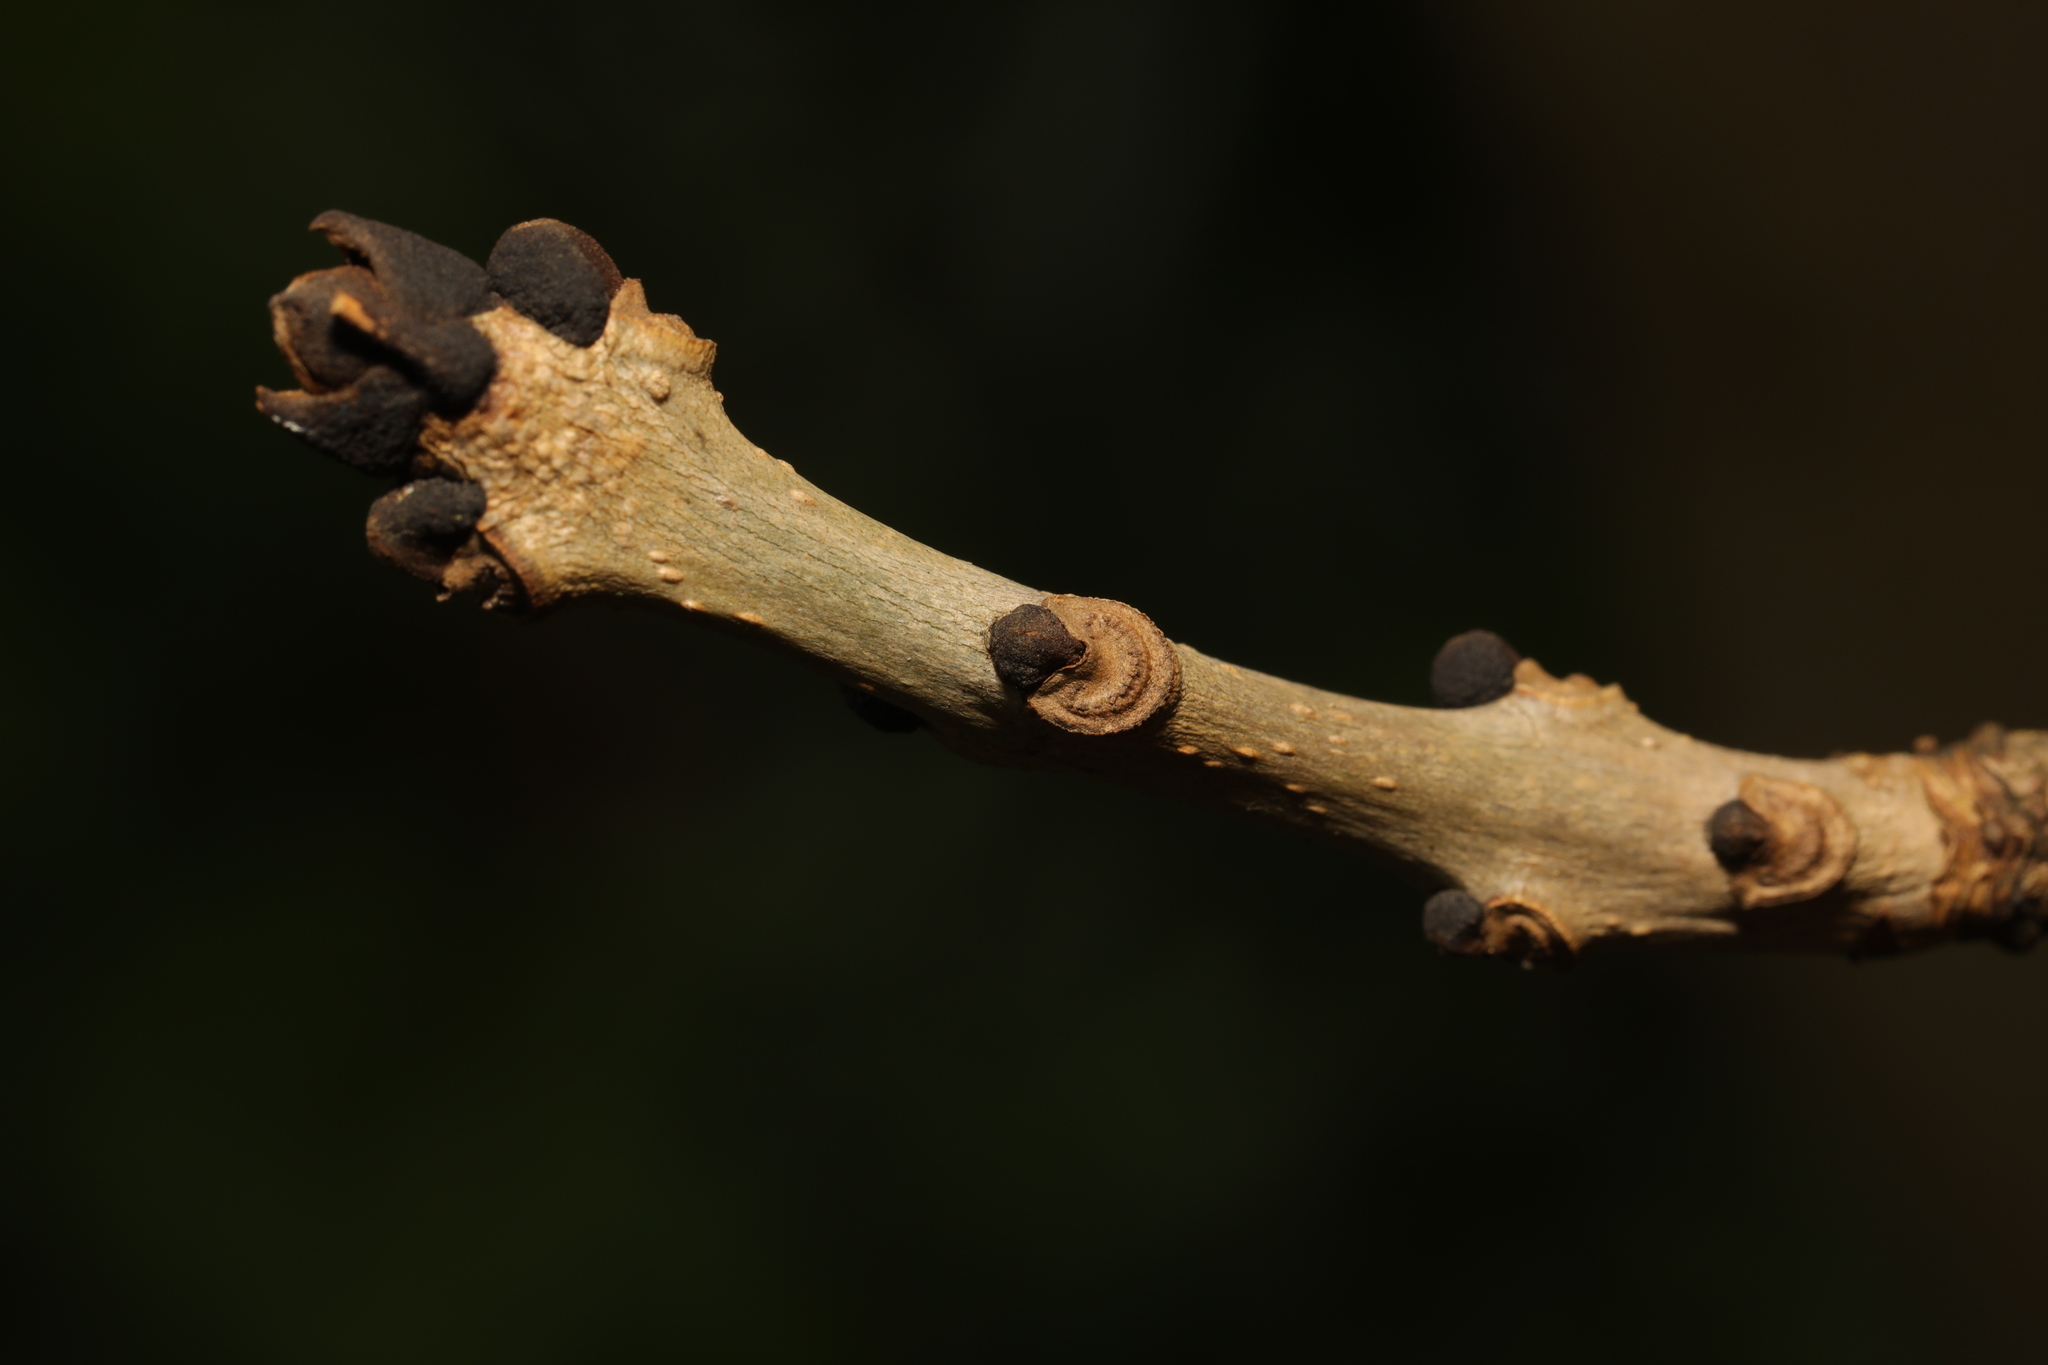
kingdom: Plantae
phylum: Tracheophyta
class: Magnoliopsida
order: Lamiales
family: Oleaceae
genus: Fraxinus
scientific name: Fraxinus excelsior
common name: European ash
